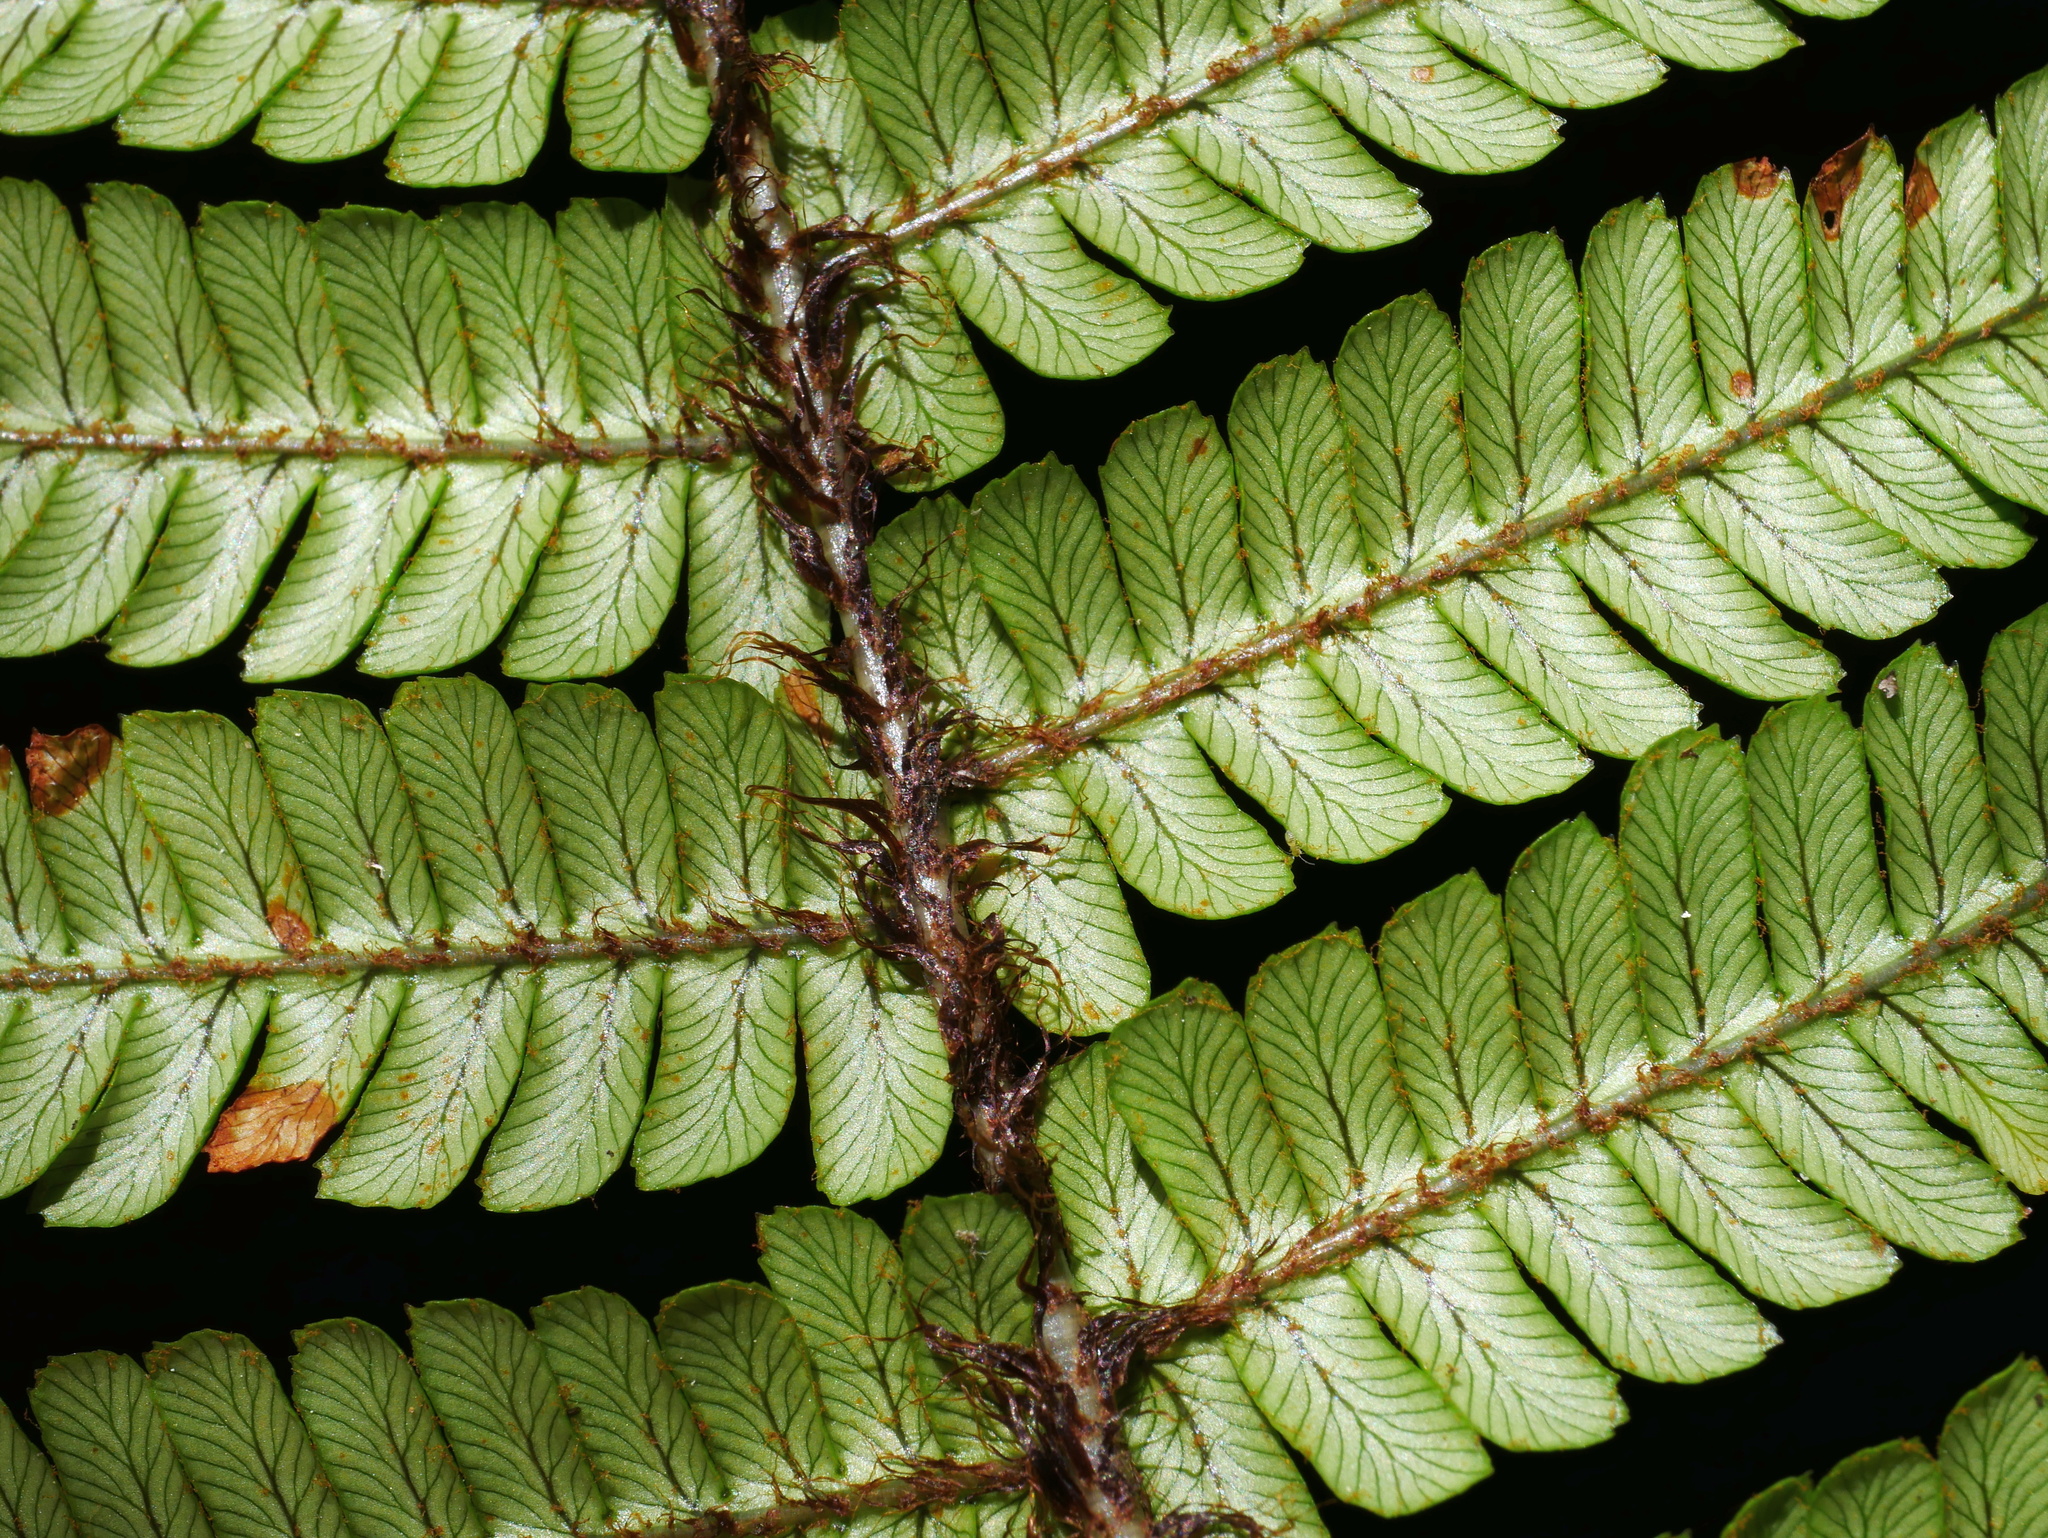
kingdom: Plantae
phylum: Tracheophyta
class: Polypodiopsida
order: Polypodiales
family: Dryopteridaceae
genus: Dryopteris
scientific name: Dryopteris wallichiana
